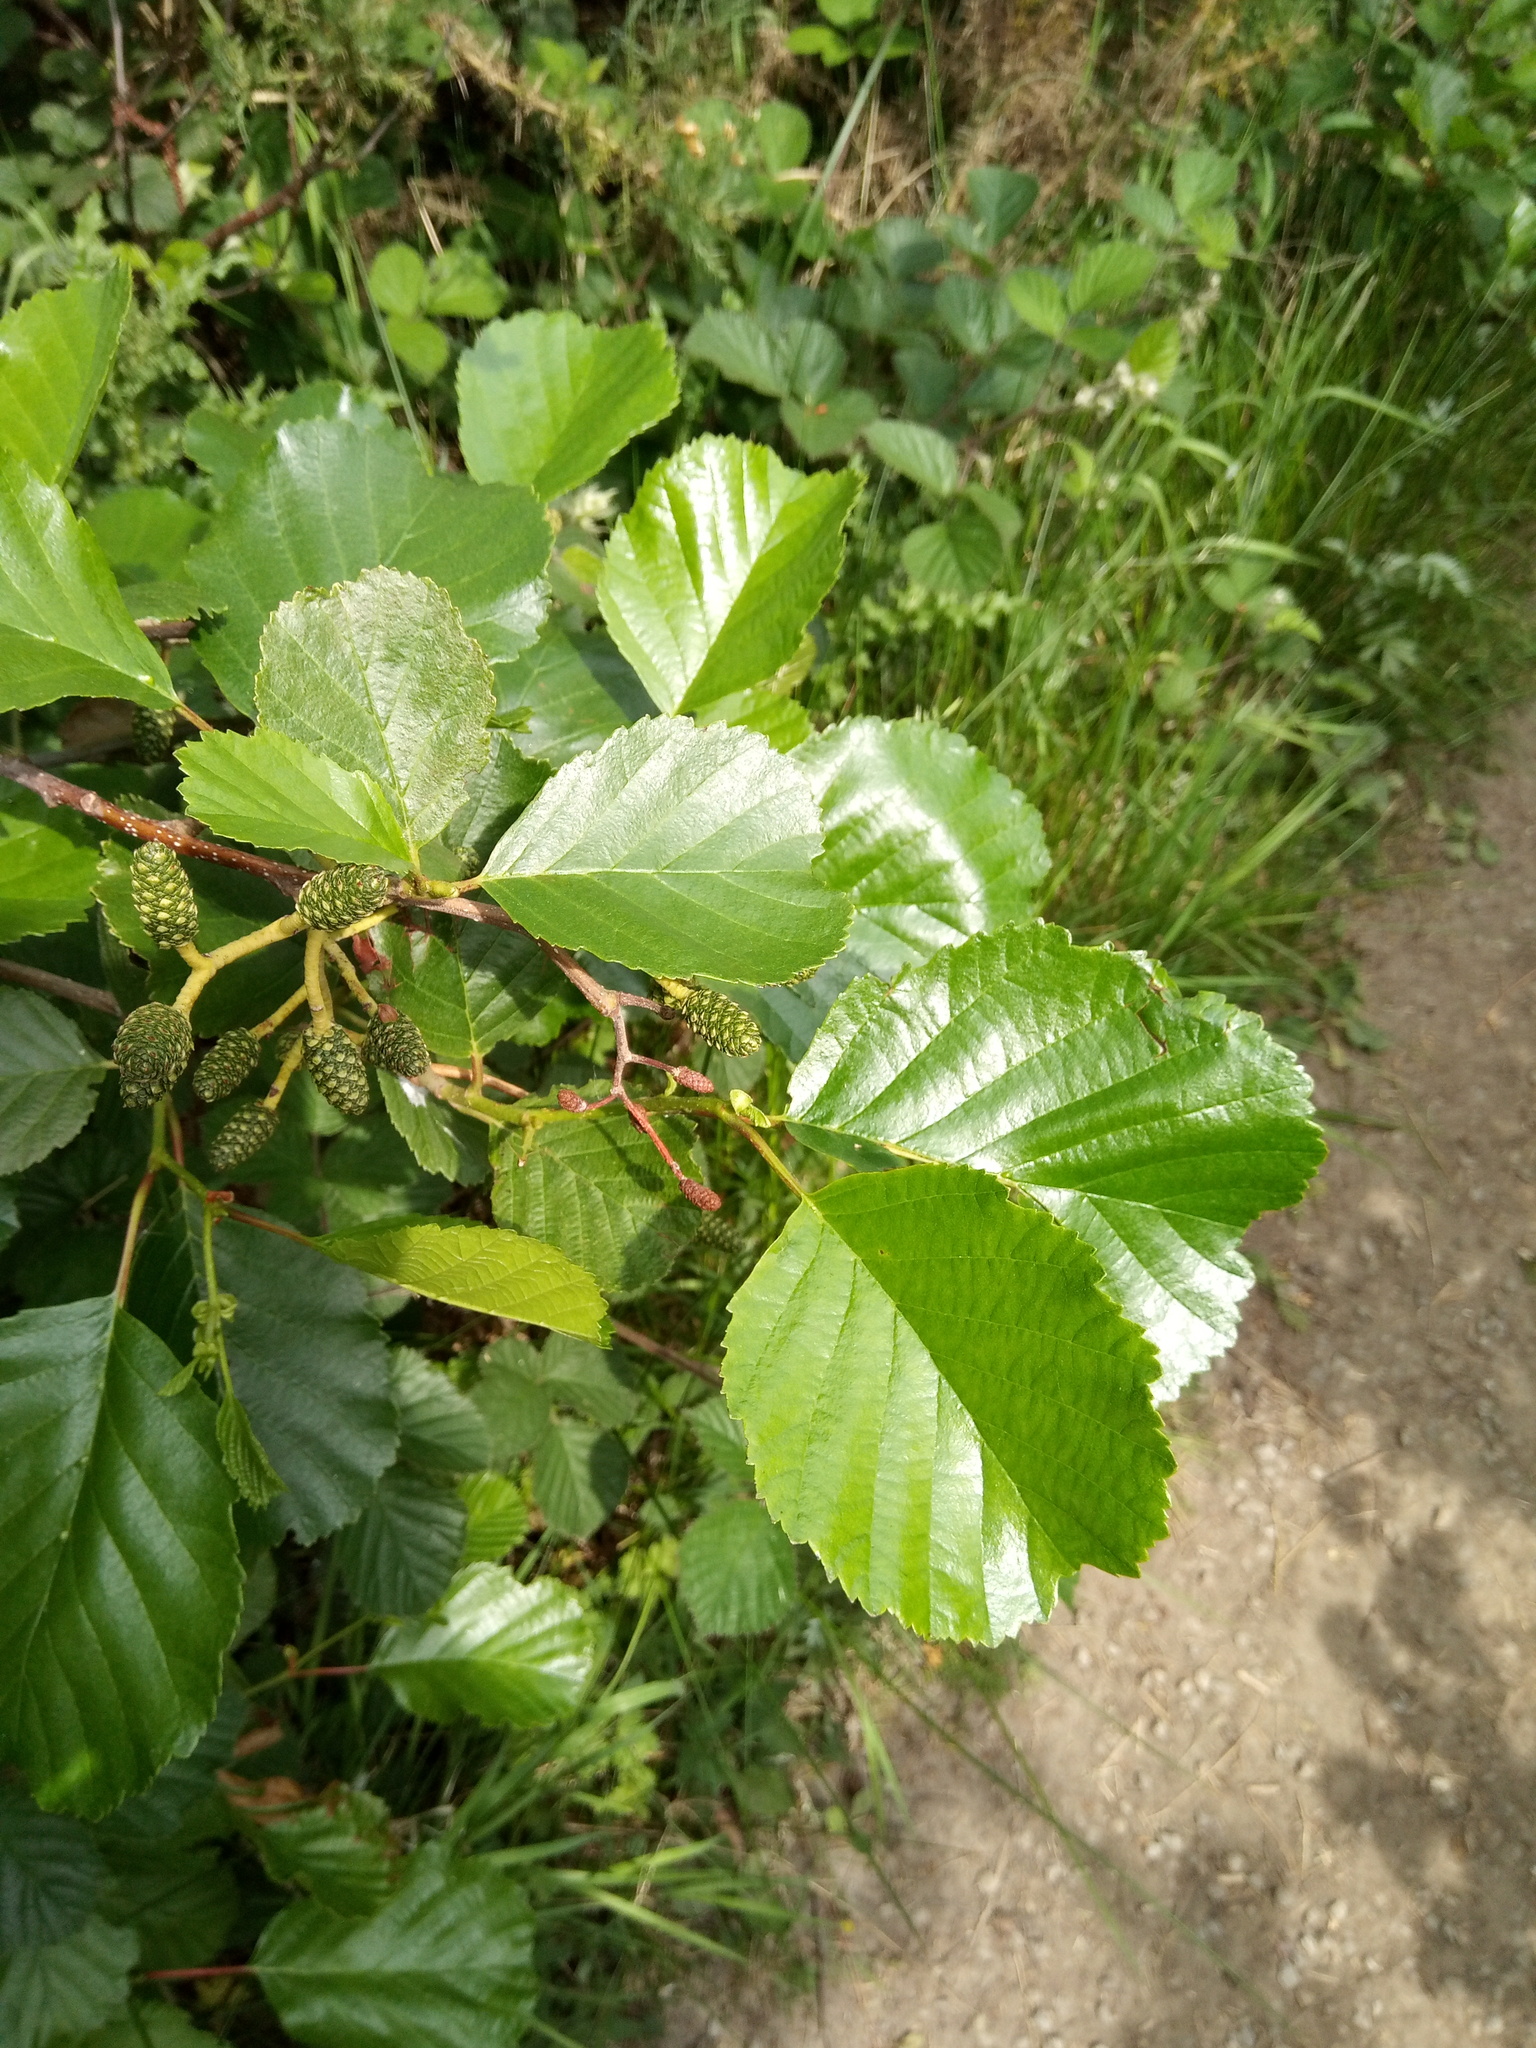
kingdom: Plantae
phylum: Tracheophyta
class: Magnoliopsida
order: Fagales
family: Betulaceae
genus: Alnus
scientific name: Alnus glutinosa
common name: Black alder
